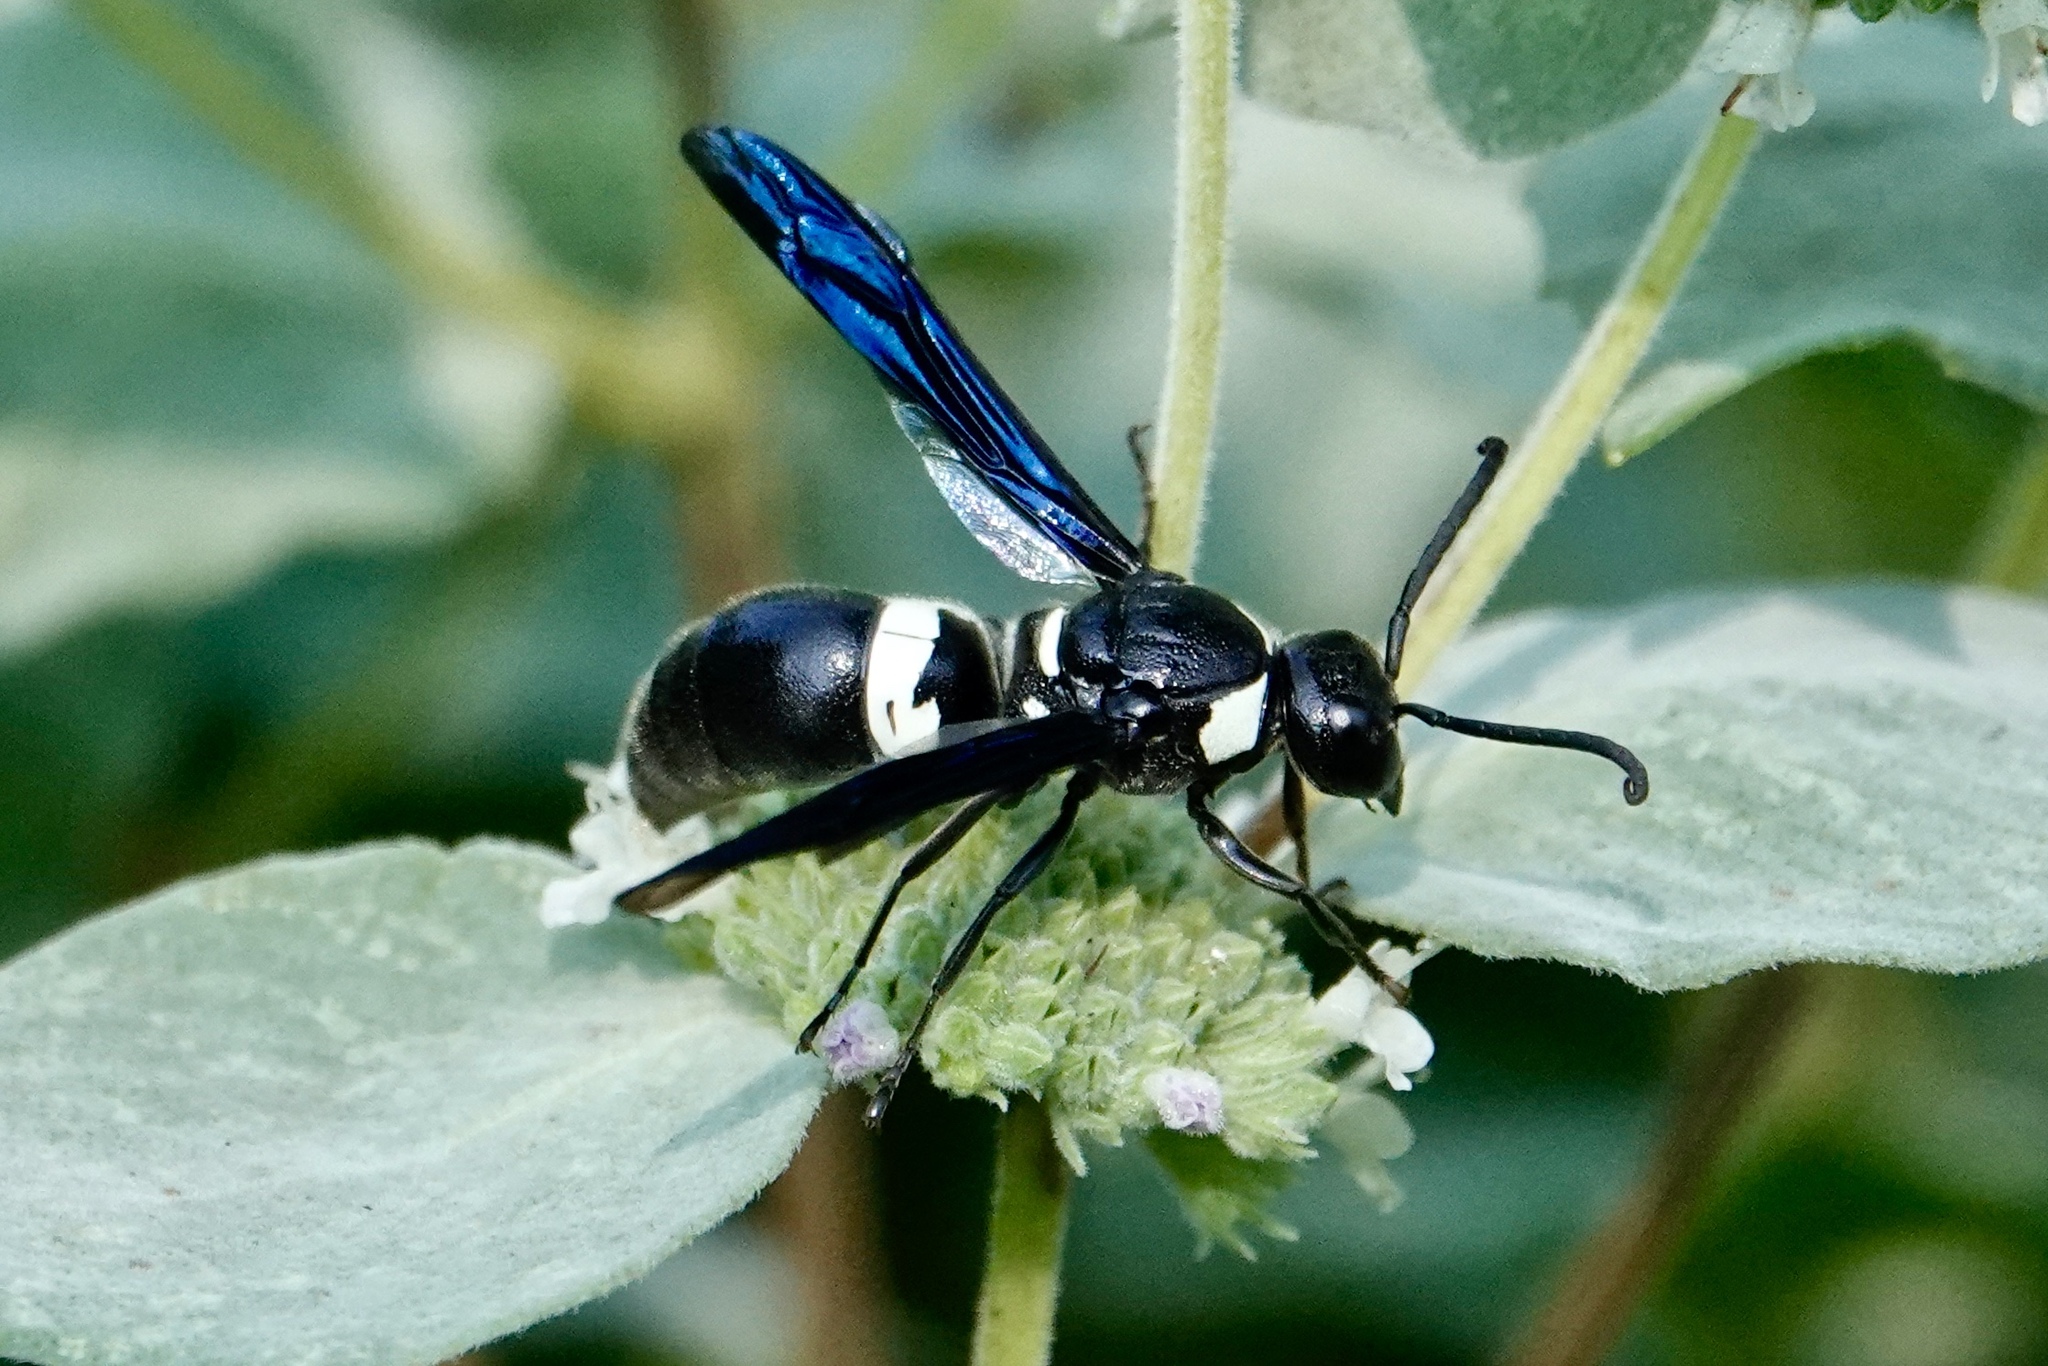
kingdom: Animalia
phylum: Arthropoda
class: Insecta
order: Hymenoptera
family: Eumenidae
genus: Monobia
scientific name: Monobia quadridens
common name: Four-toothed mason wasp
